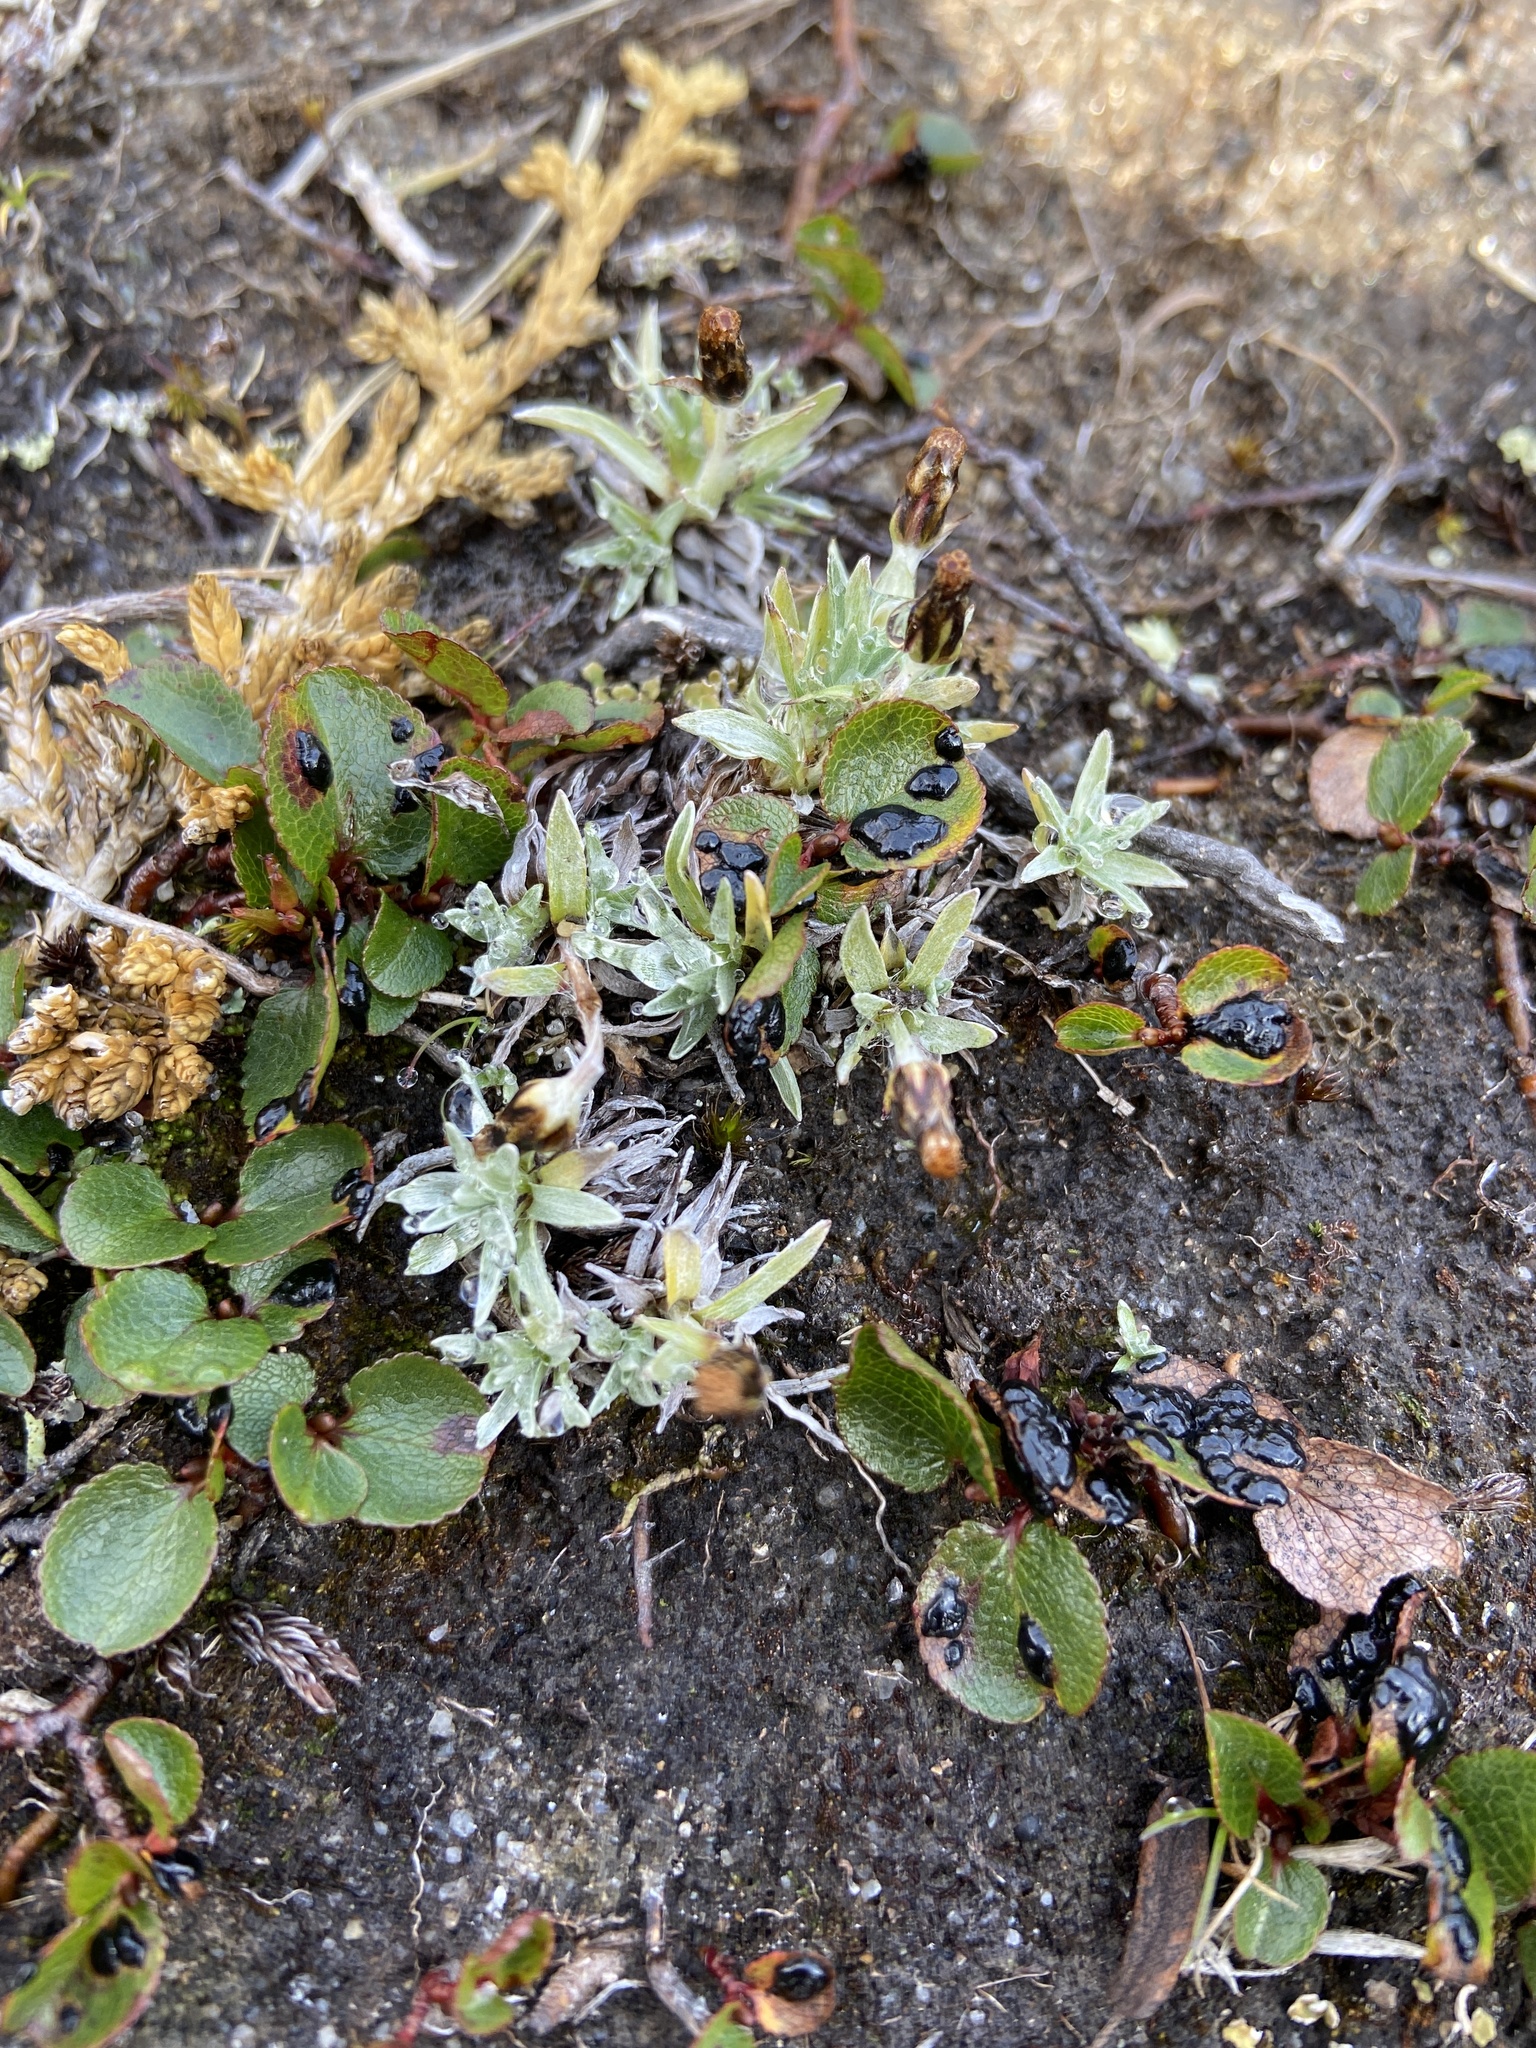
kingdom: Plantae
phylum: Tracheophyta
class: Magnoliopsida
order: Asterales
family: Asteraceae
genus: Omalotheca
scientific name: Omalotheca supina
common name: Alpine arctic-cudweed
